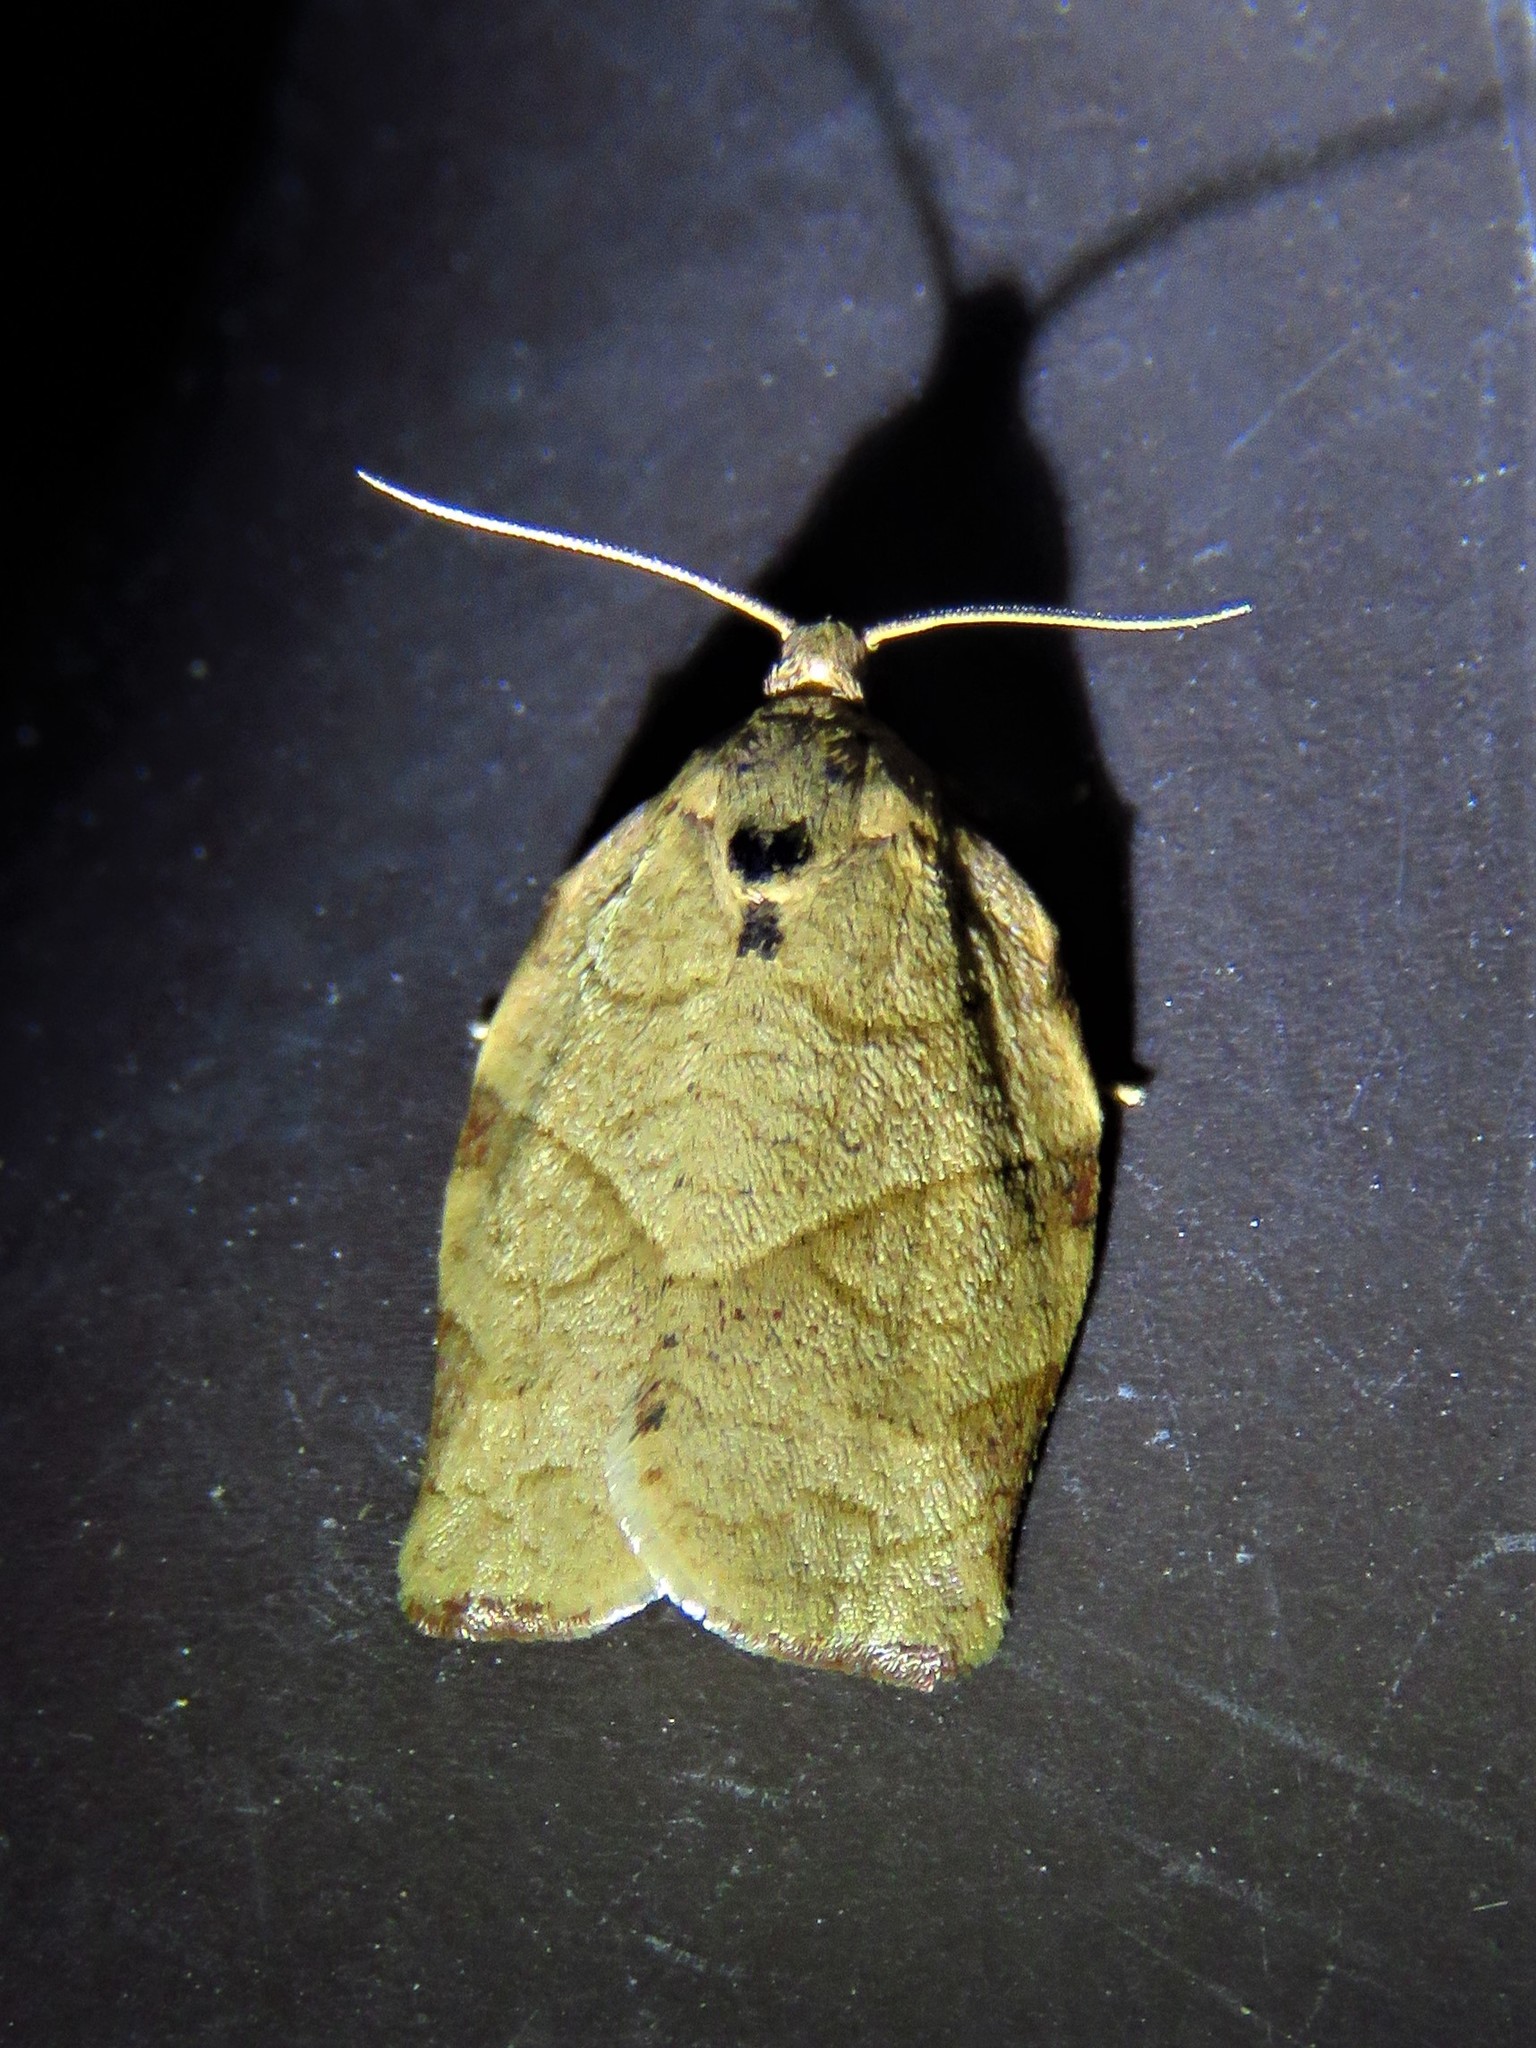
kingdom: Animalia
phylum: Arthropoda
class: Insecta
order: Lepidoptera
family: Tortricidae
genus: Choristoneura
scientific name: Choristoneura rosaceana
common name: Oblique-banded leafroller moth
